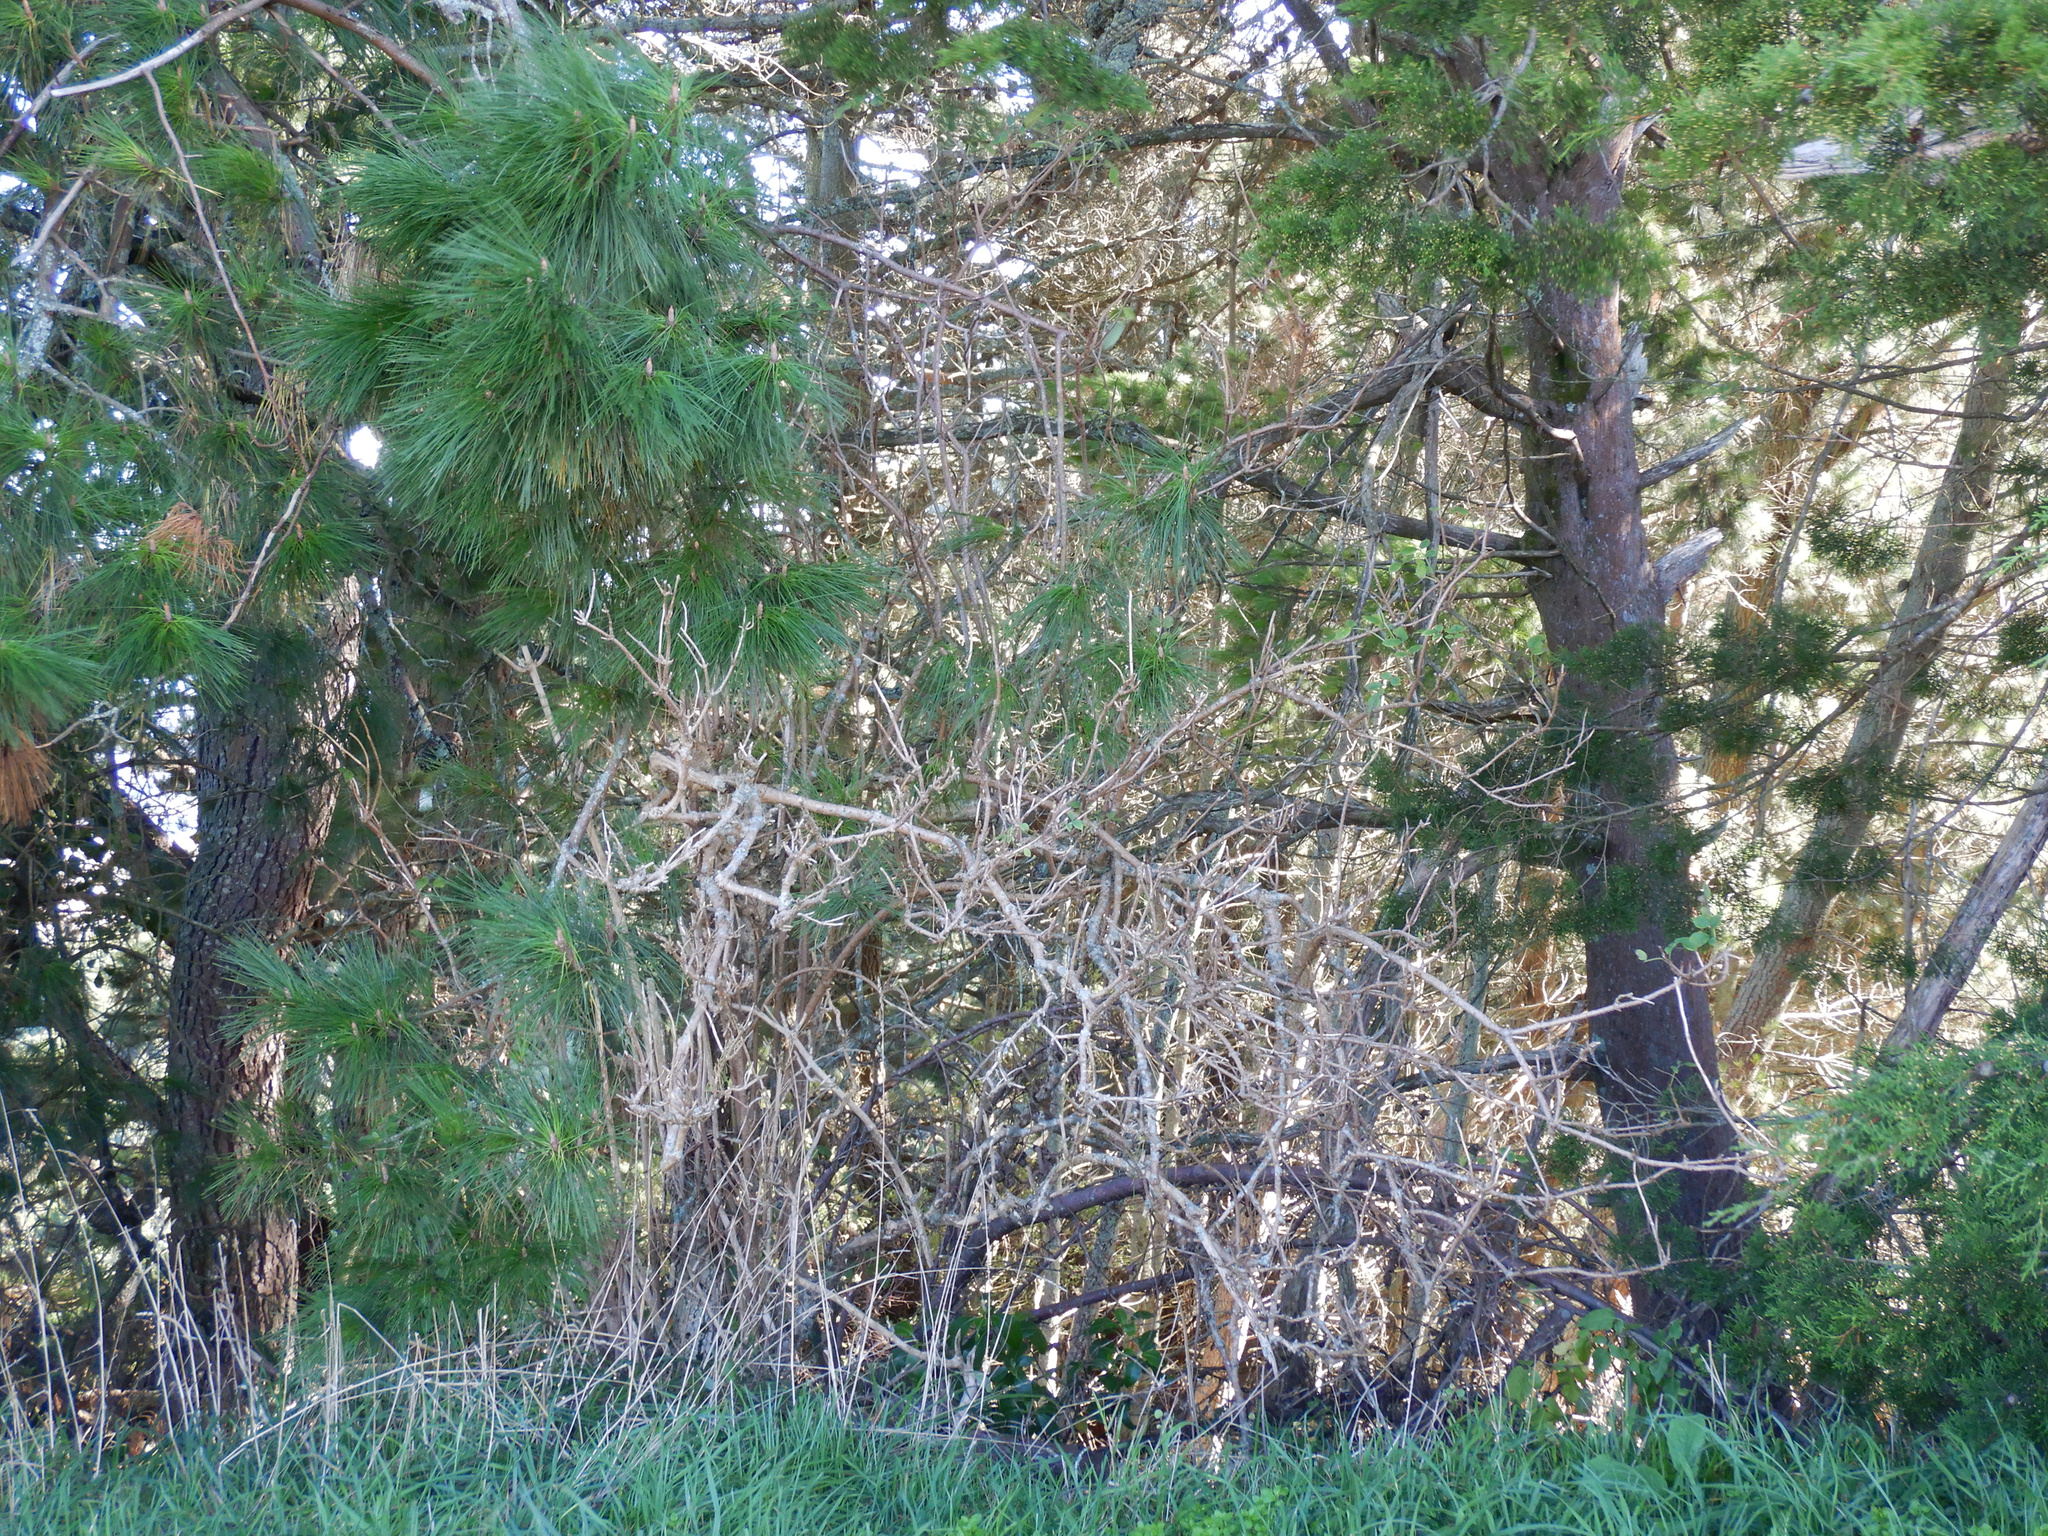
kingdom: Plantae
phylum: Tracheophyta
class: Magnoliopsida
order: Dipsacales
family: Viburnaceae
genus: Sambucus
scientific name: Sambucus nigra
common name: Elder
